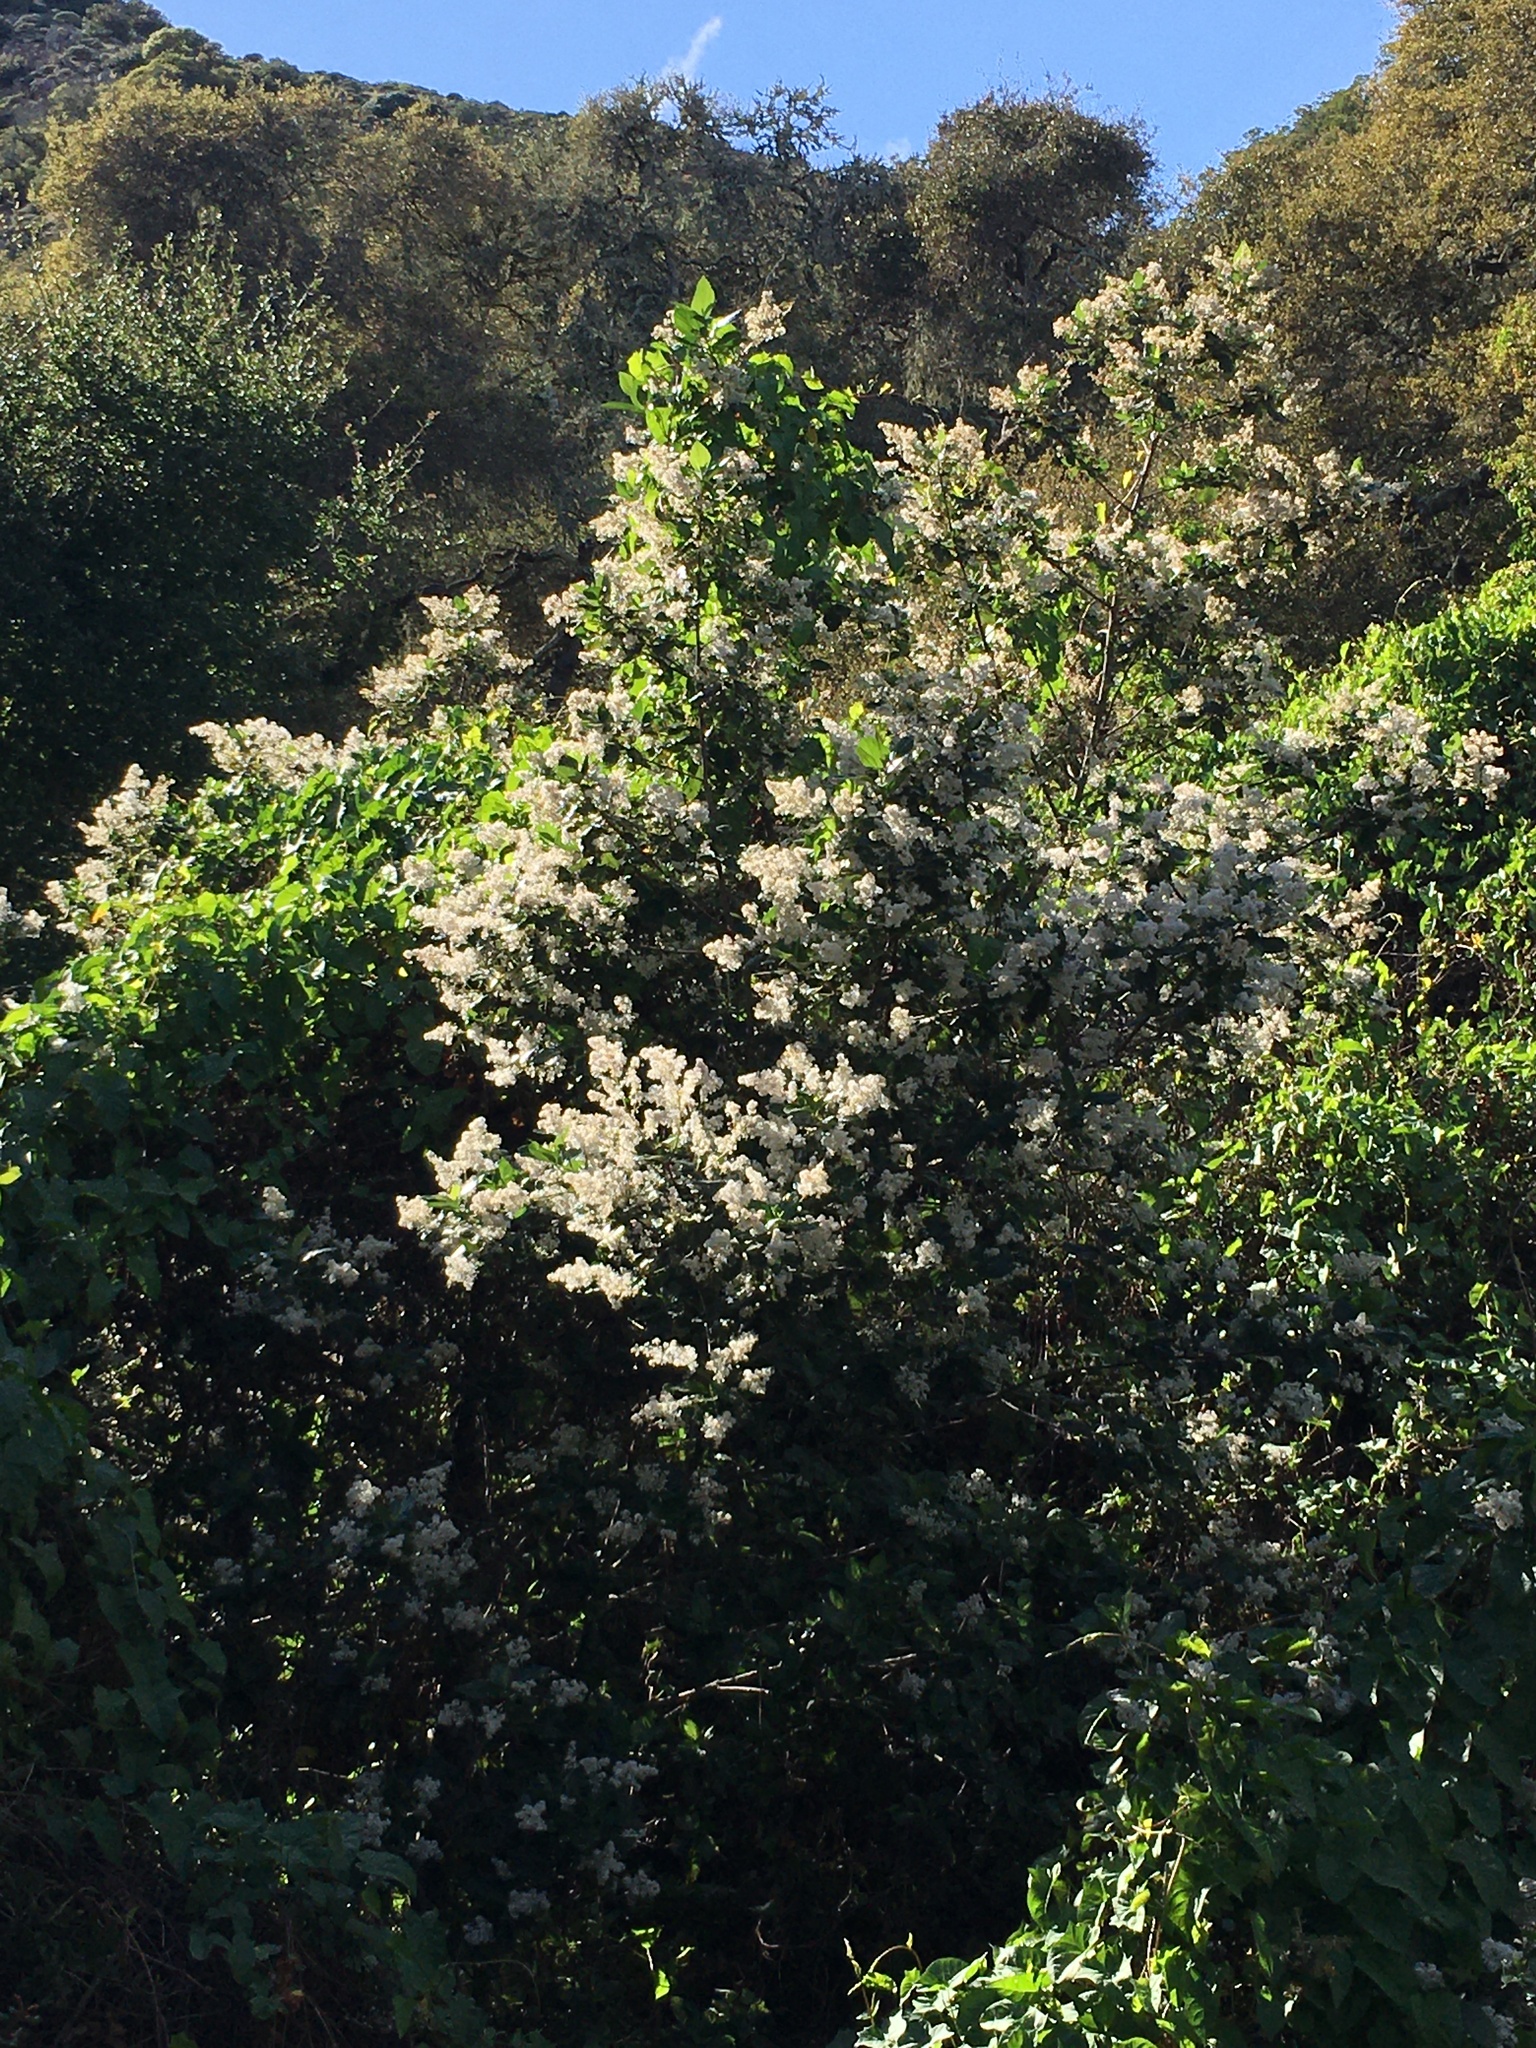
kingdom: Plantae
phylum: Tracheophyta
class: Magnoliopsida
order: Rosales
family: Rhamnaceae
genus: Ceanothus
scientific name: Ceanothus arboreus
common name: Catalina mountain-lilac
